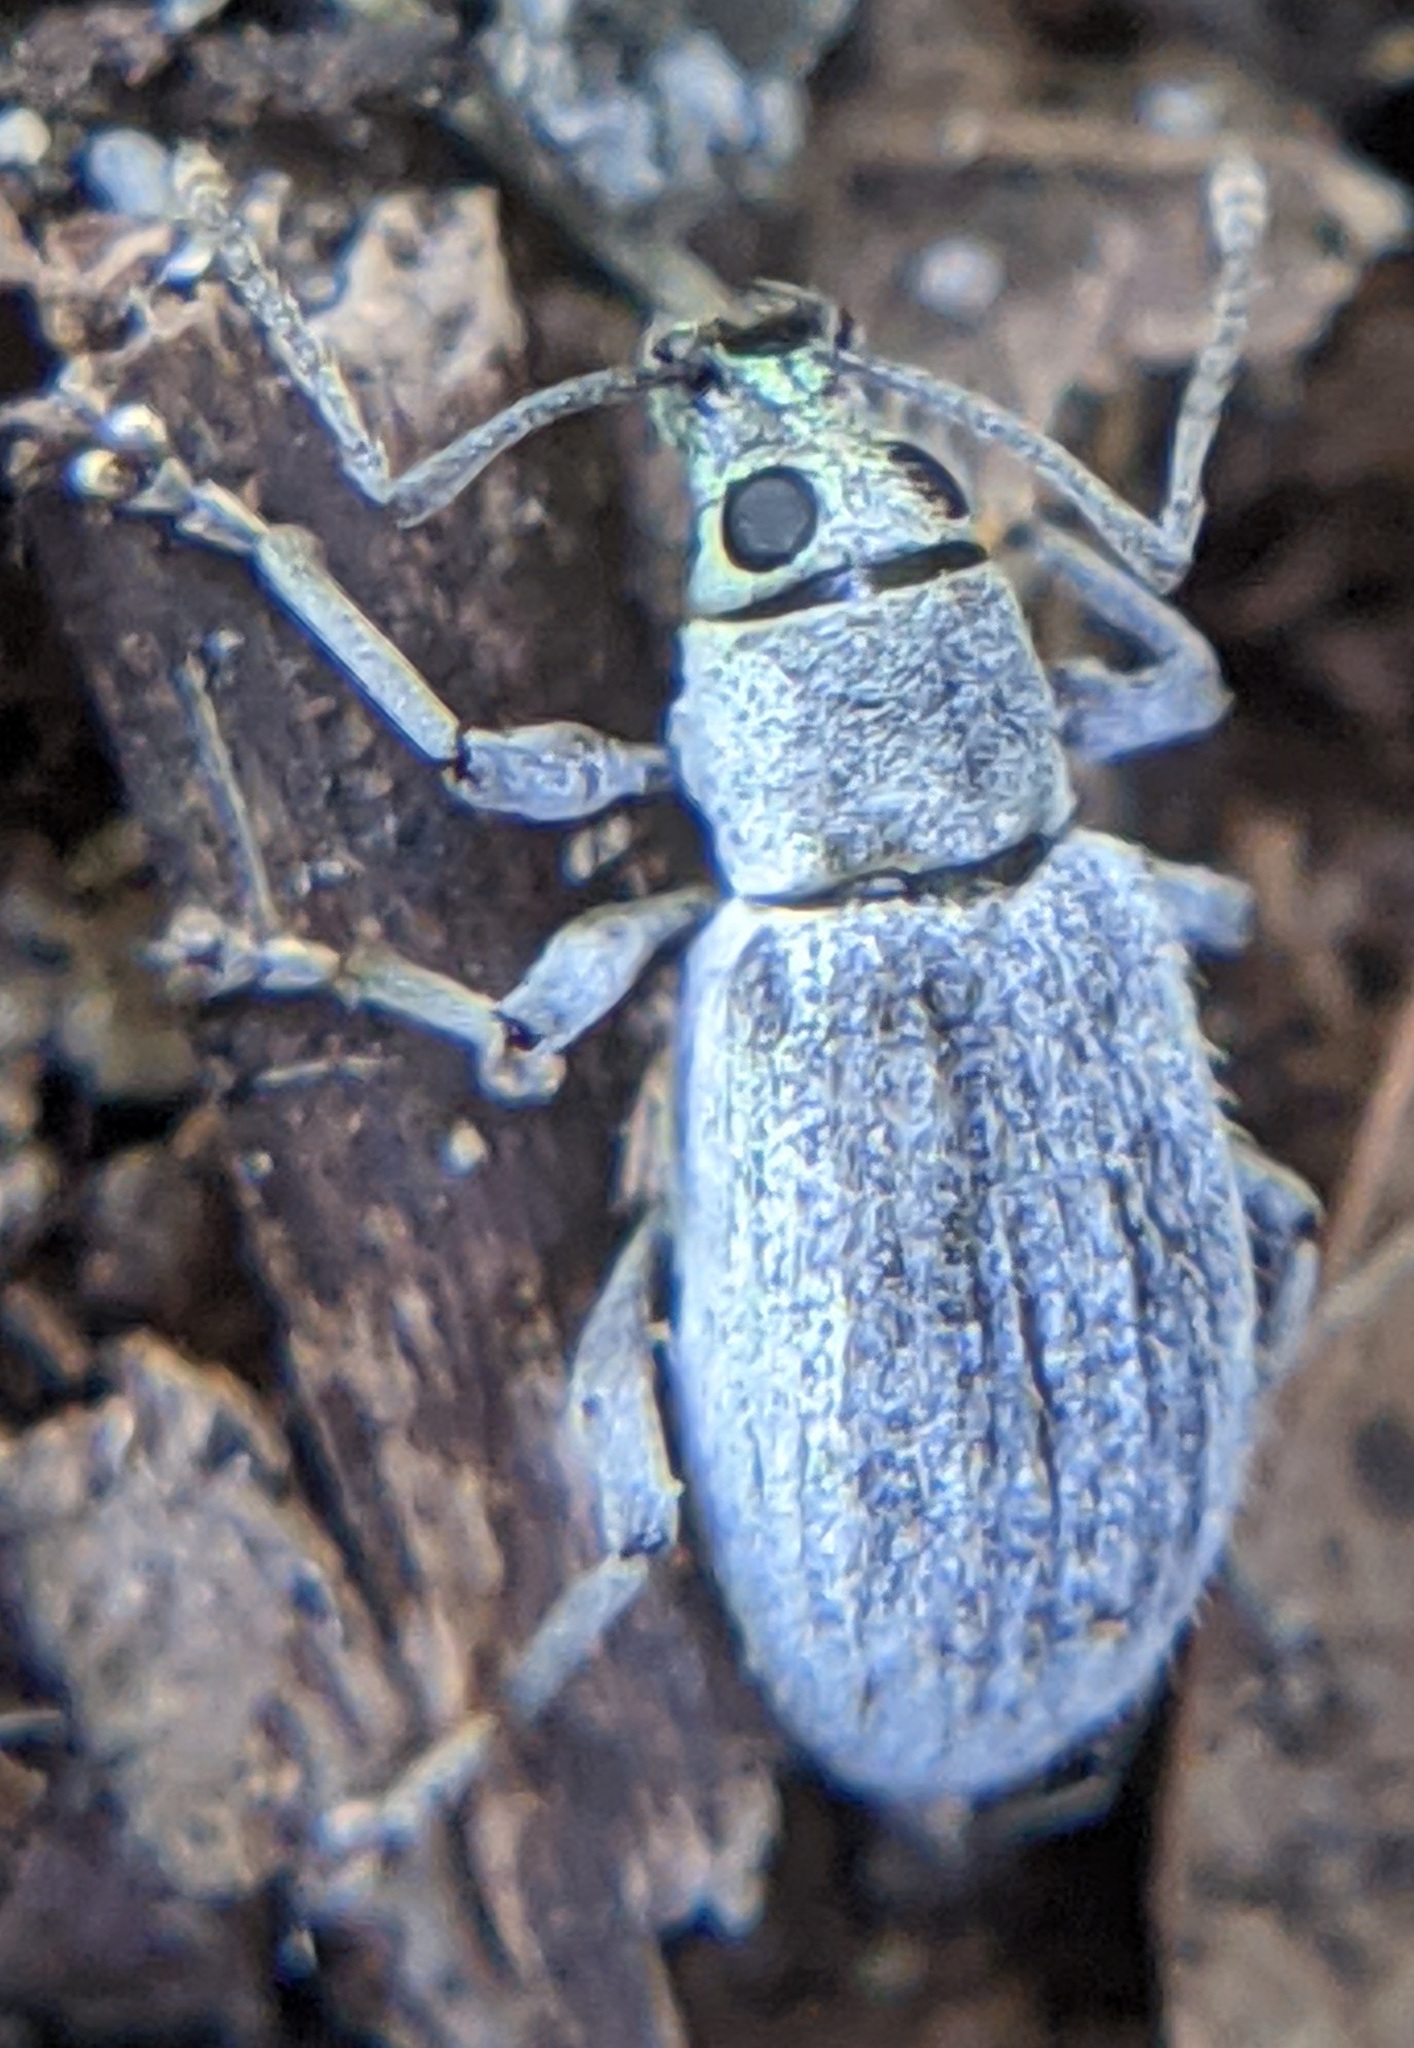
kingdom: Animalia
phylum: Arthropoda
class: Insecta
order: Coleoptera
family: Curculionidae
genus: Cyrtepistomus
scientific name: Cyrtepistomus castaneus
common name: Weevil
